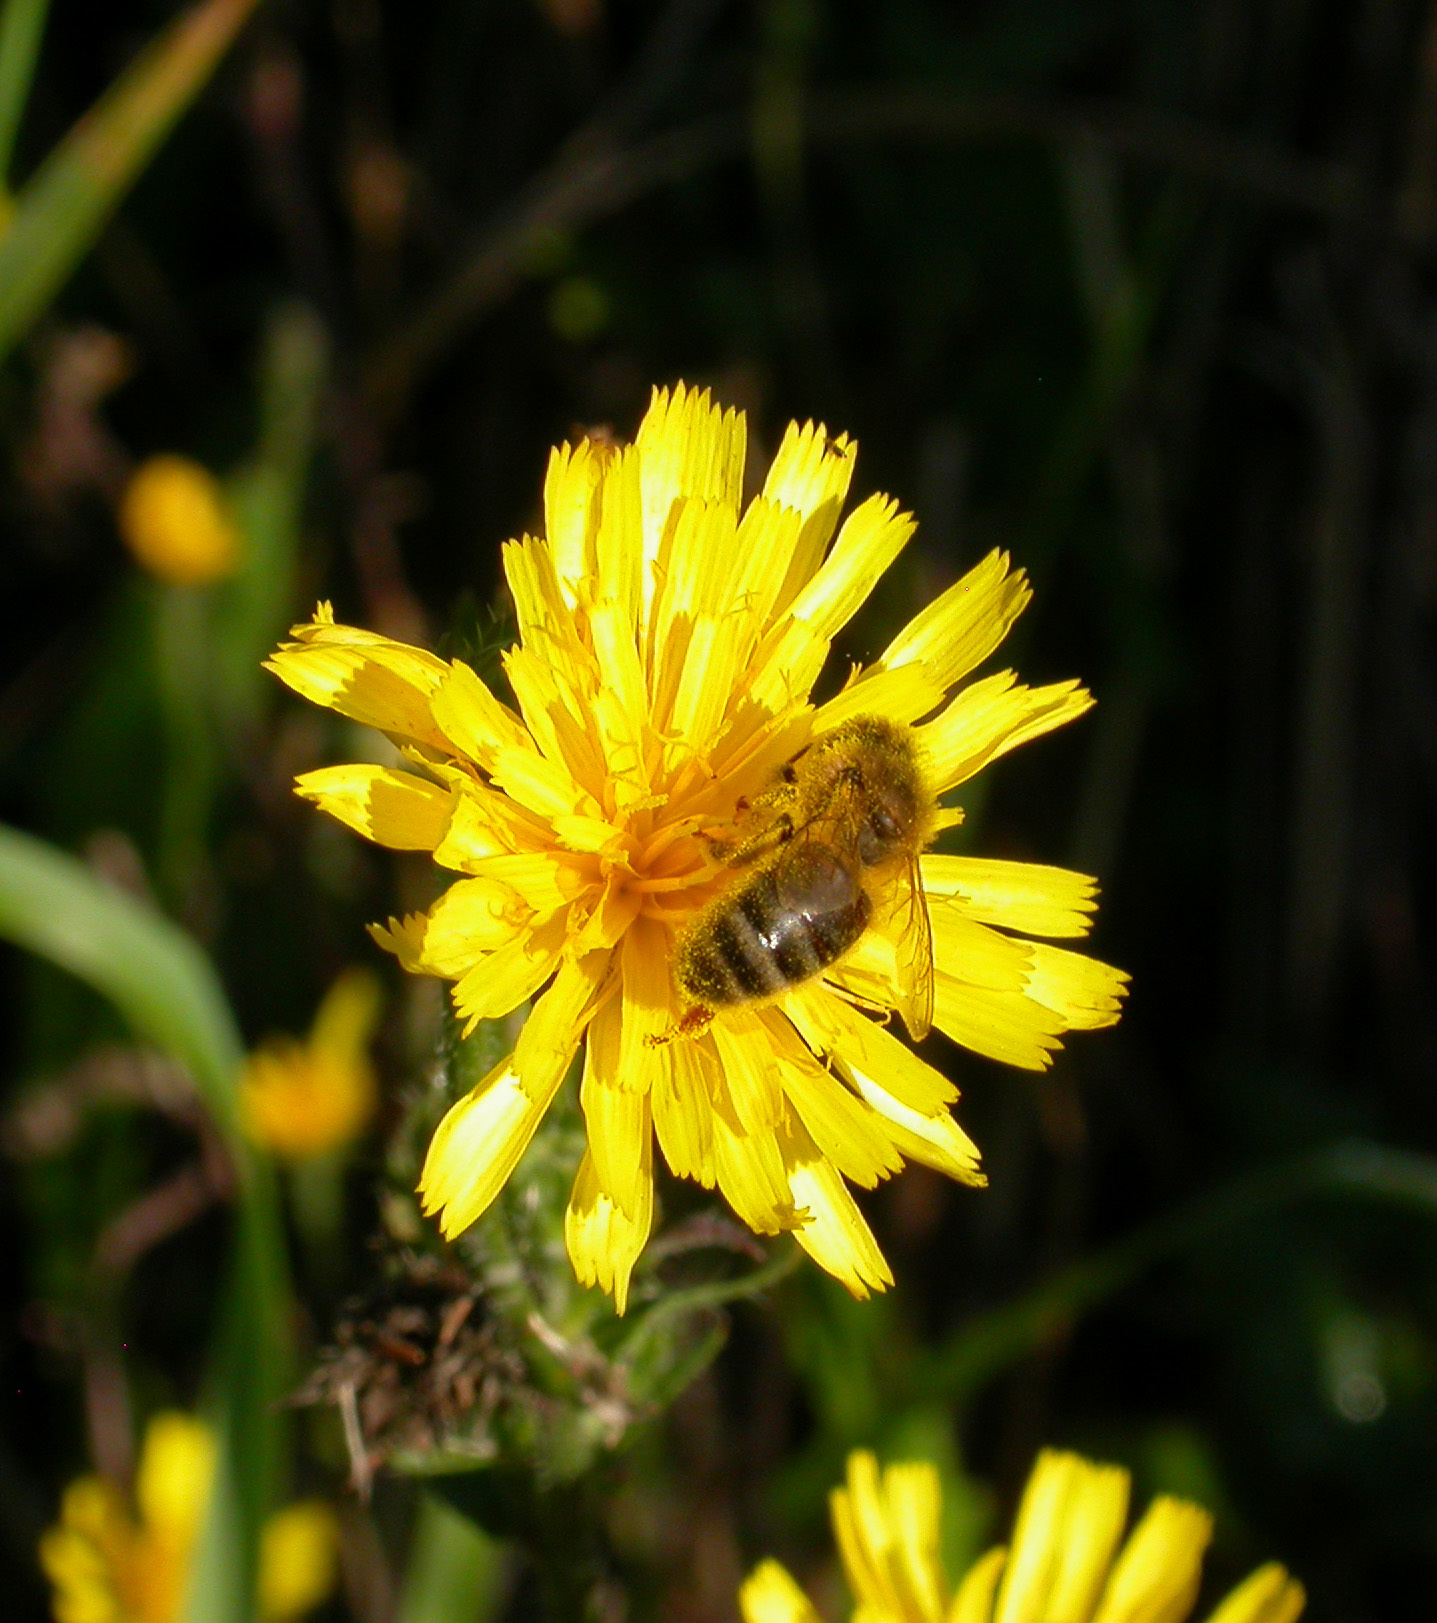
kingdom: Animalia
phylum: Arthropoda
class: Insecta
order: Hymenoptera
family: Apidae
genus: Apis
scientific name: Apis mellifera
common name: Honey bee
